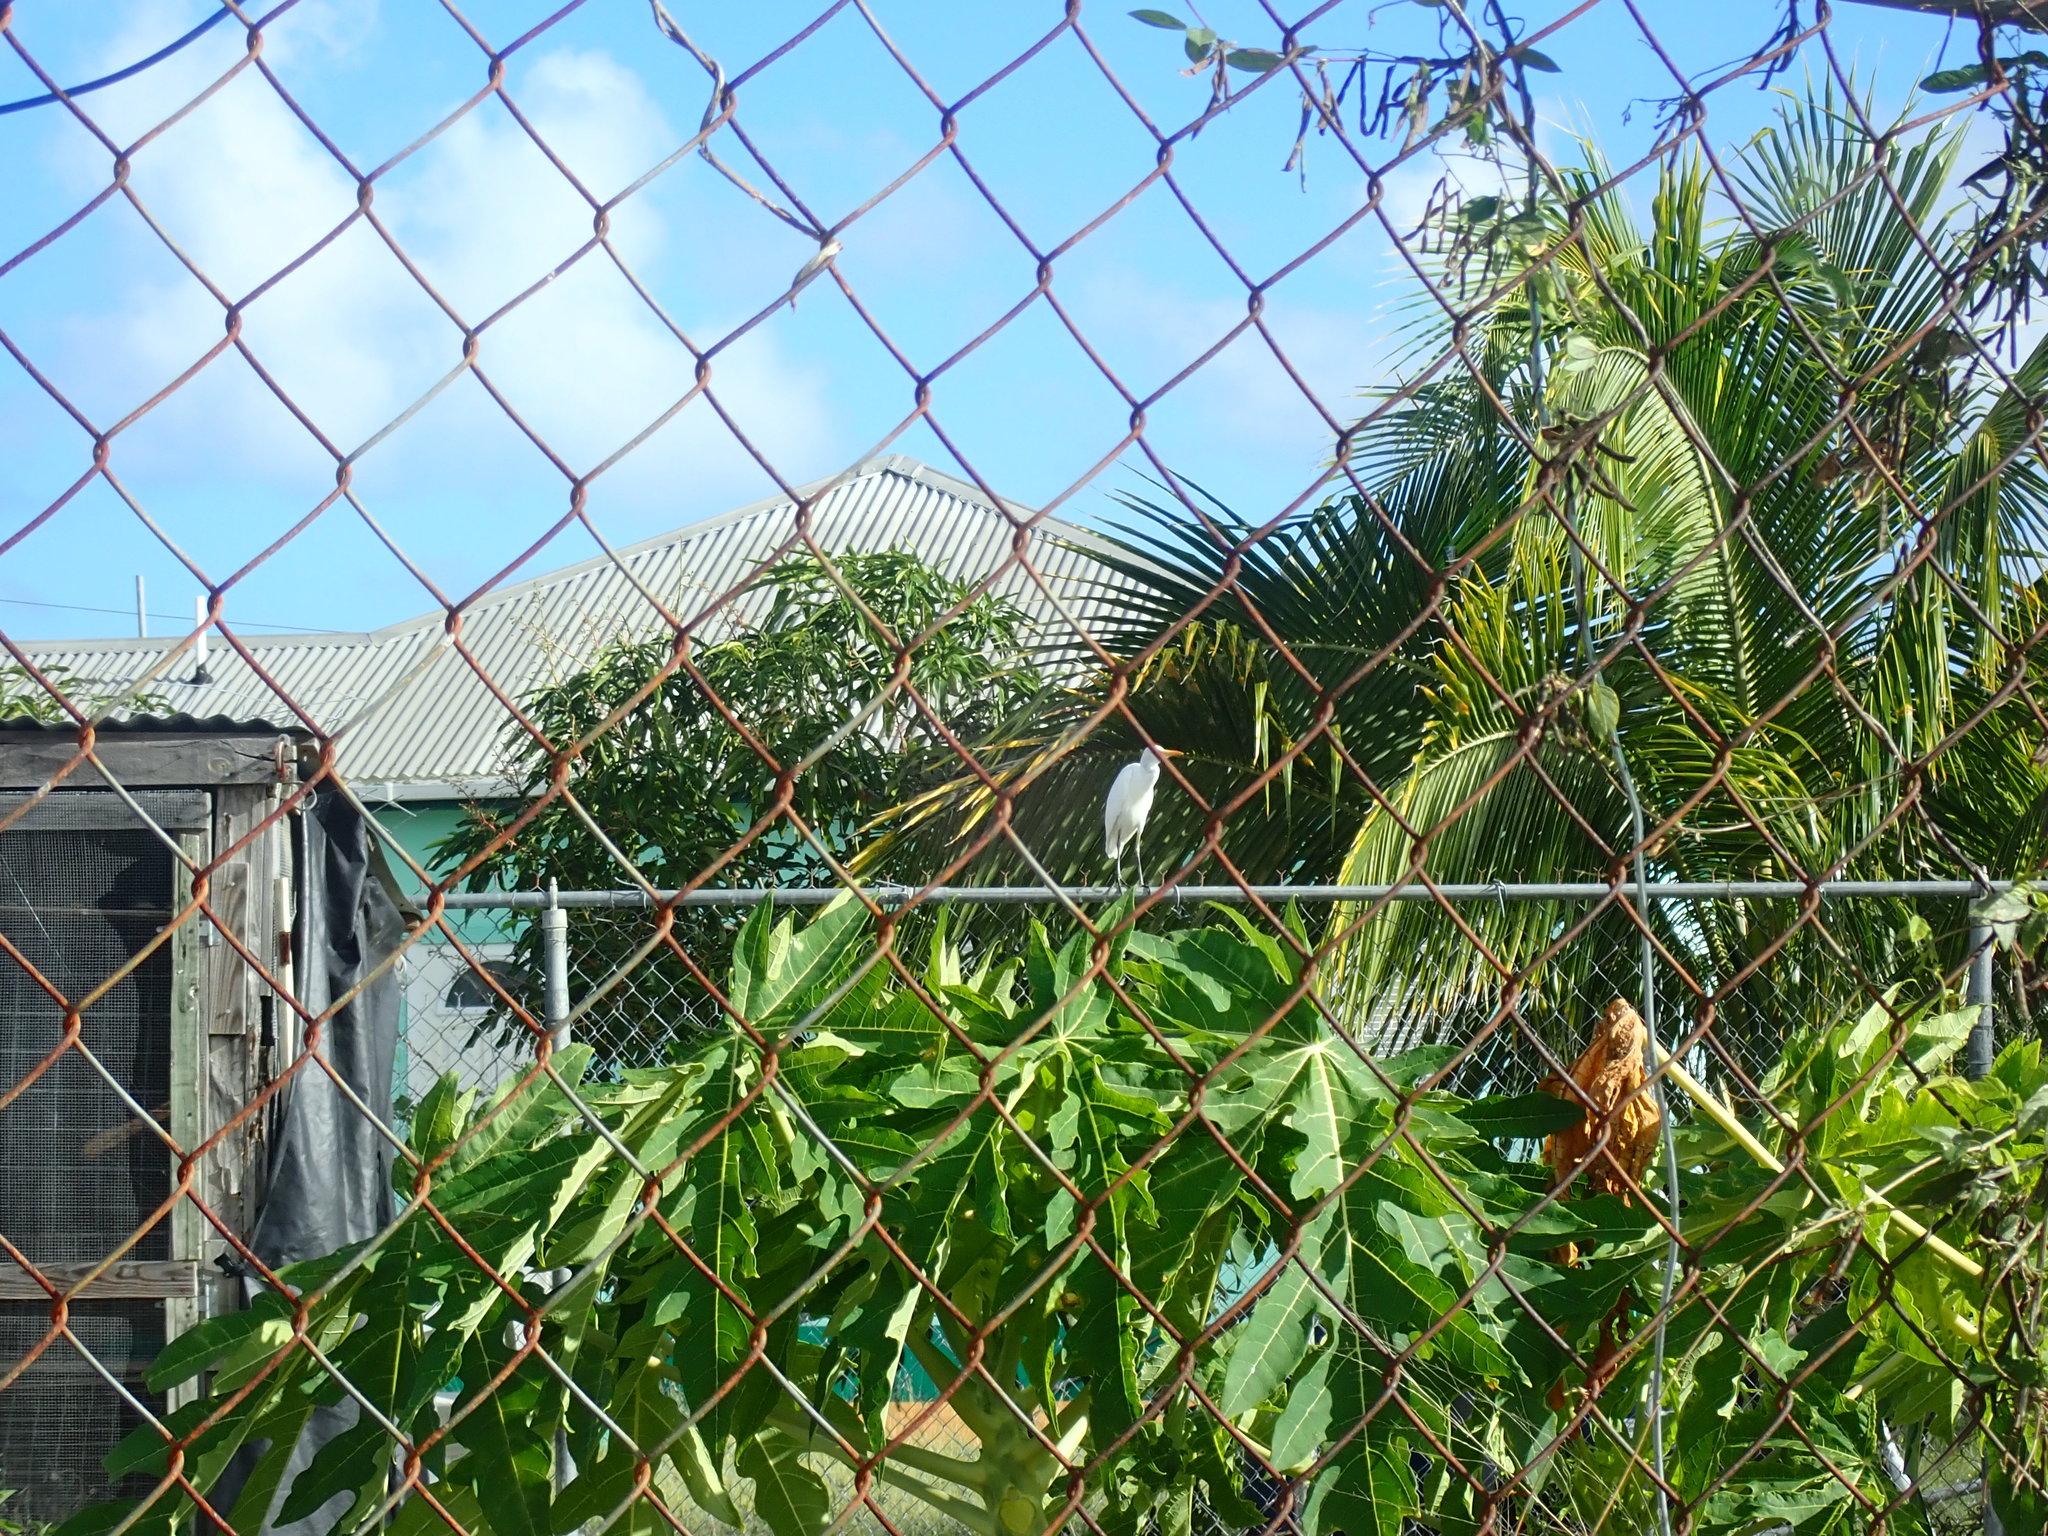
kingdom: Animalia
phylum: Chordata
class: Aves
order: Pelecaniformes
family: Ardeidae
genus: Bubulcus
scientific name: Bubulcus ibis
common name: Cattle egret
